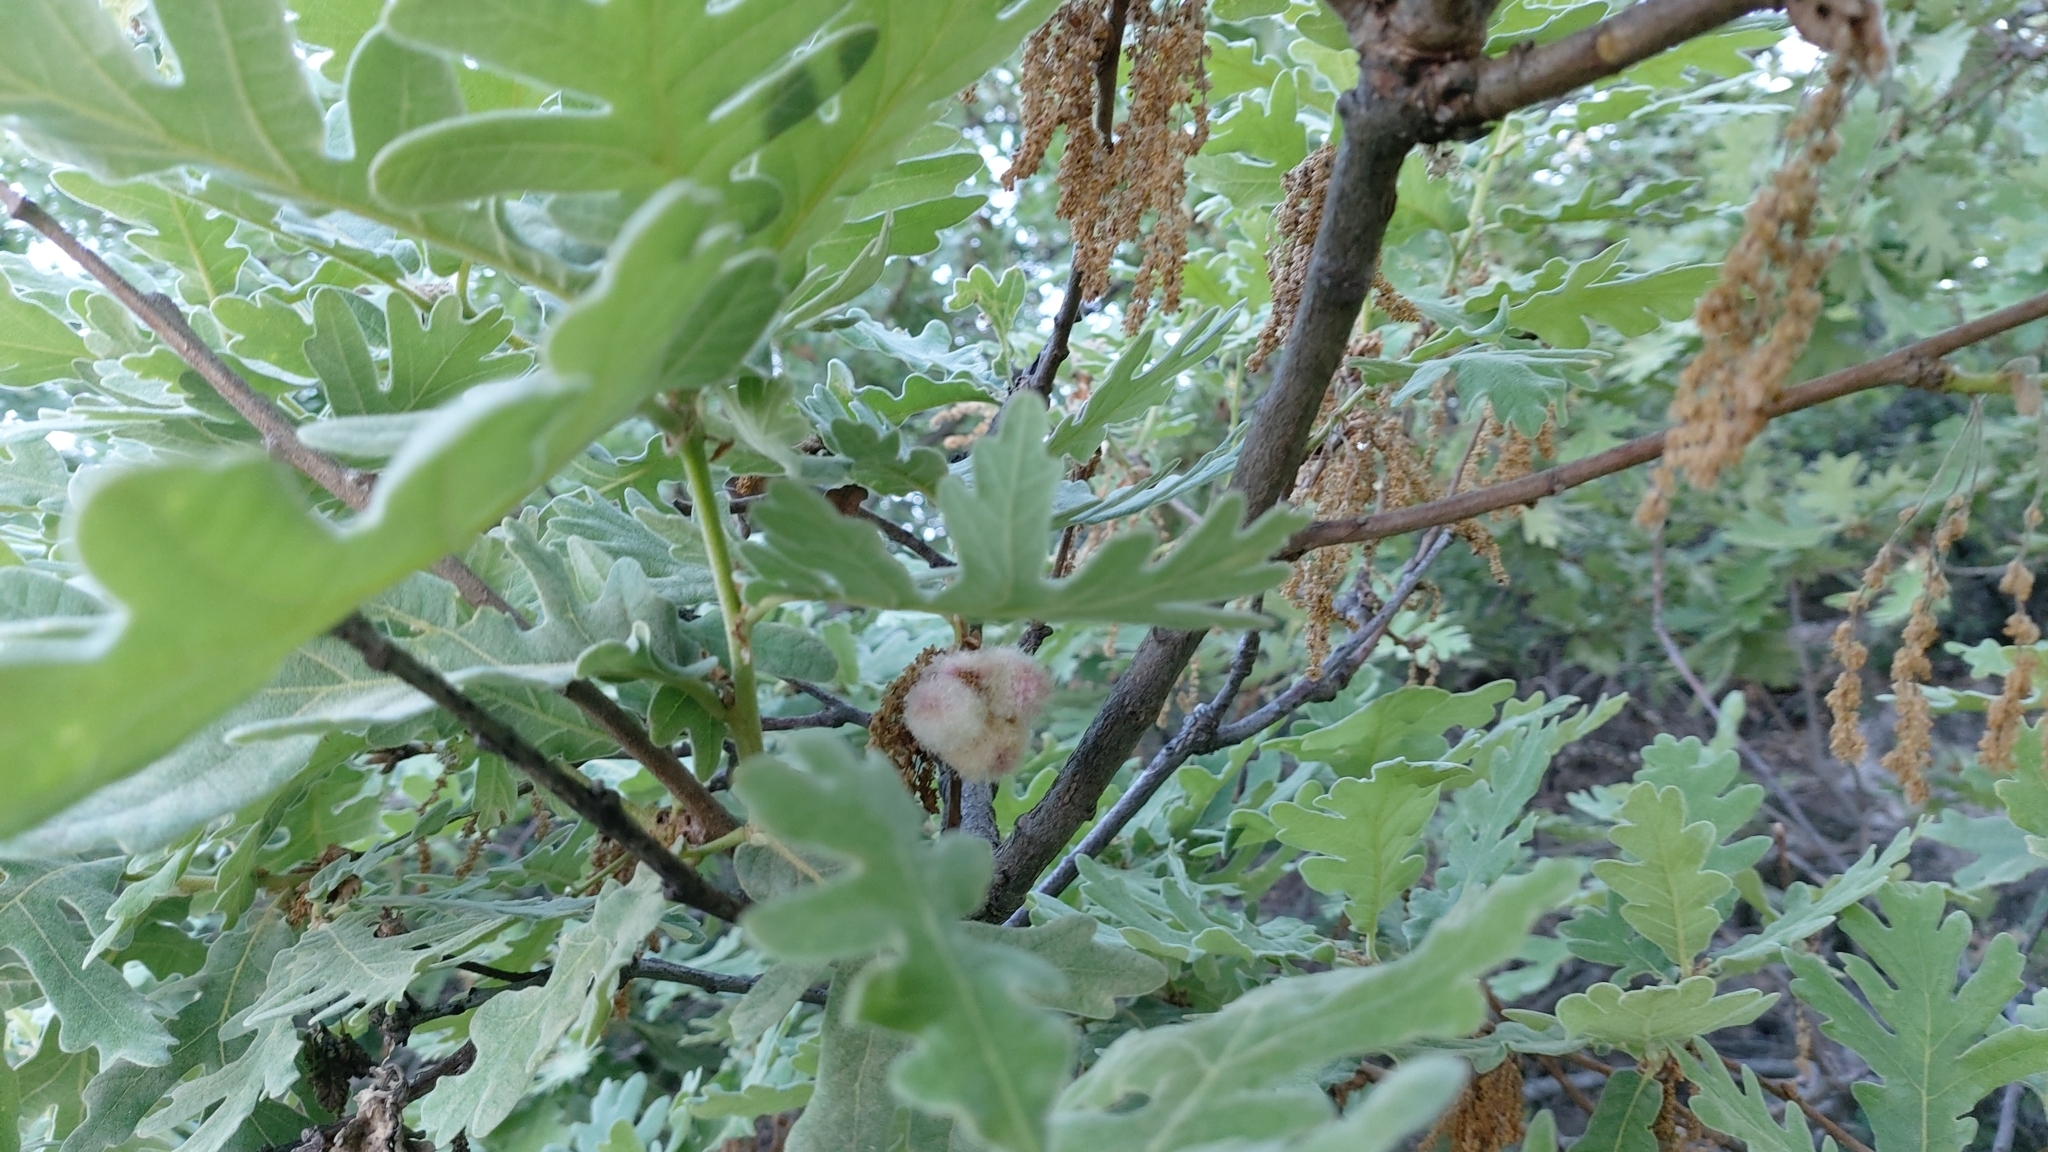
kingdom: Animalia
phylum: Arthropoda
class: Insecta
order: Hymenoptera
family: Cynipidae
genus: Andricus
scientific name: Andricus quercusramuli
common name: Cottonwool gall
